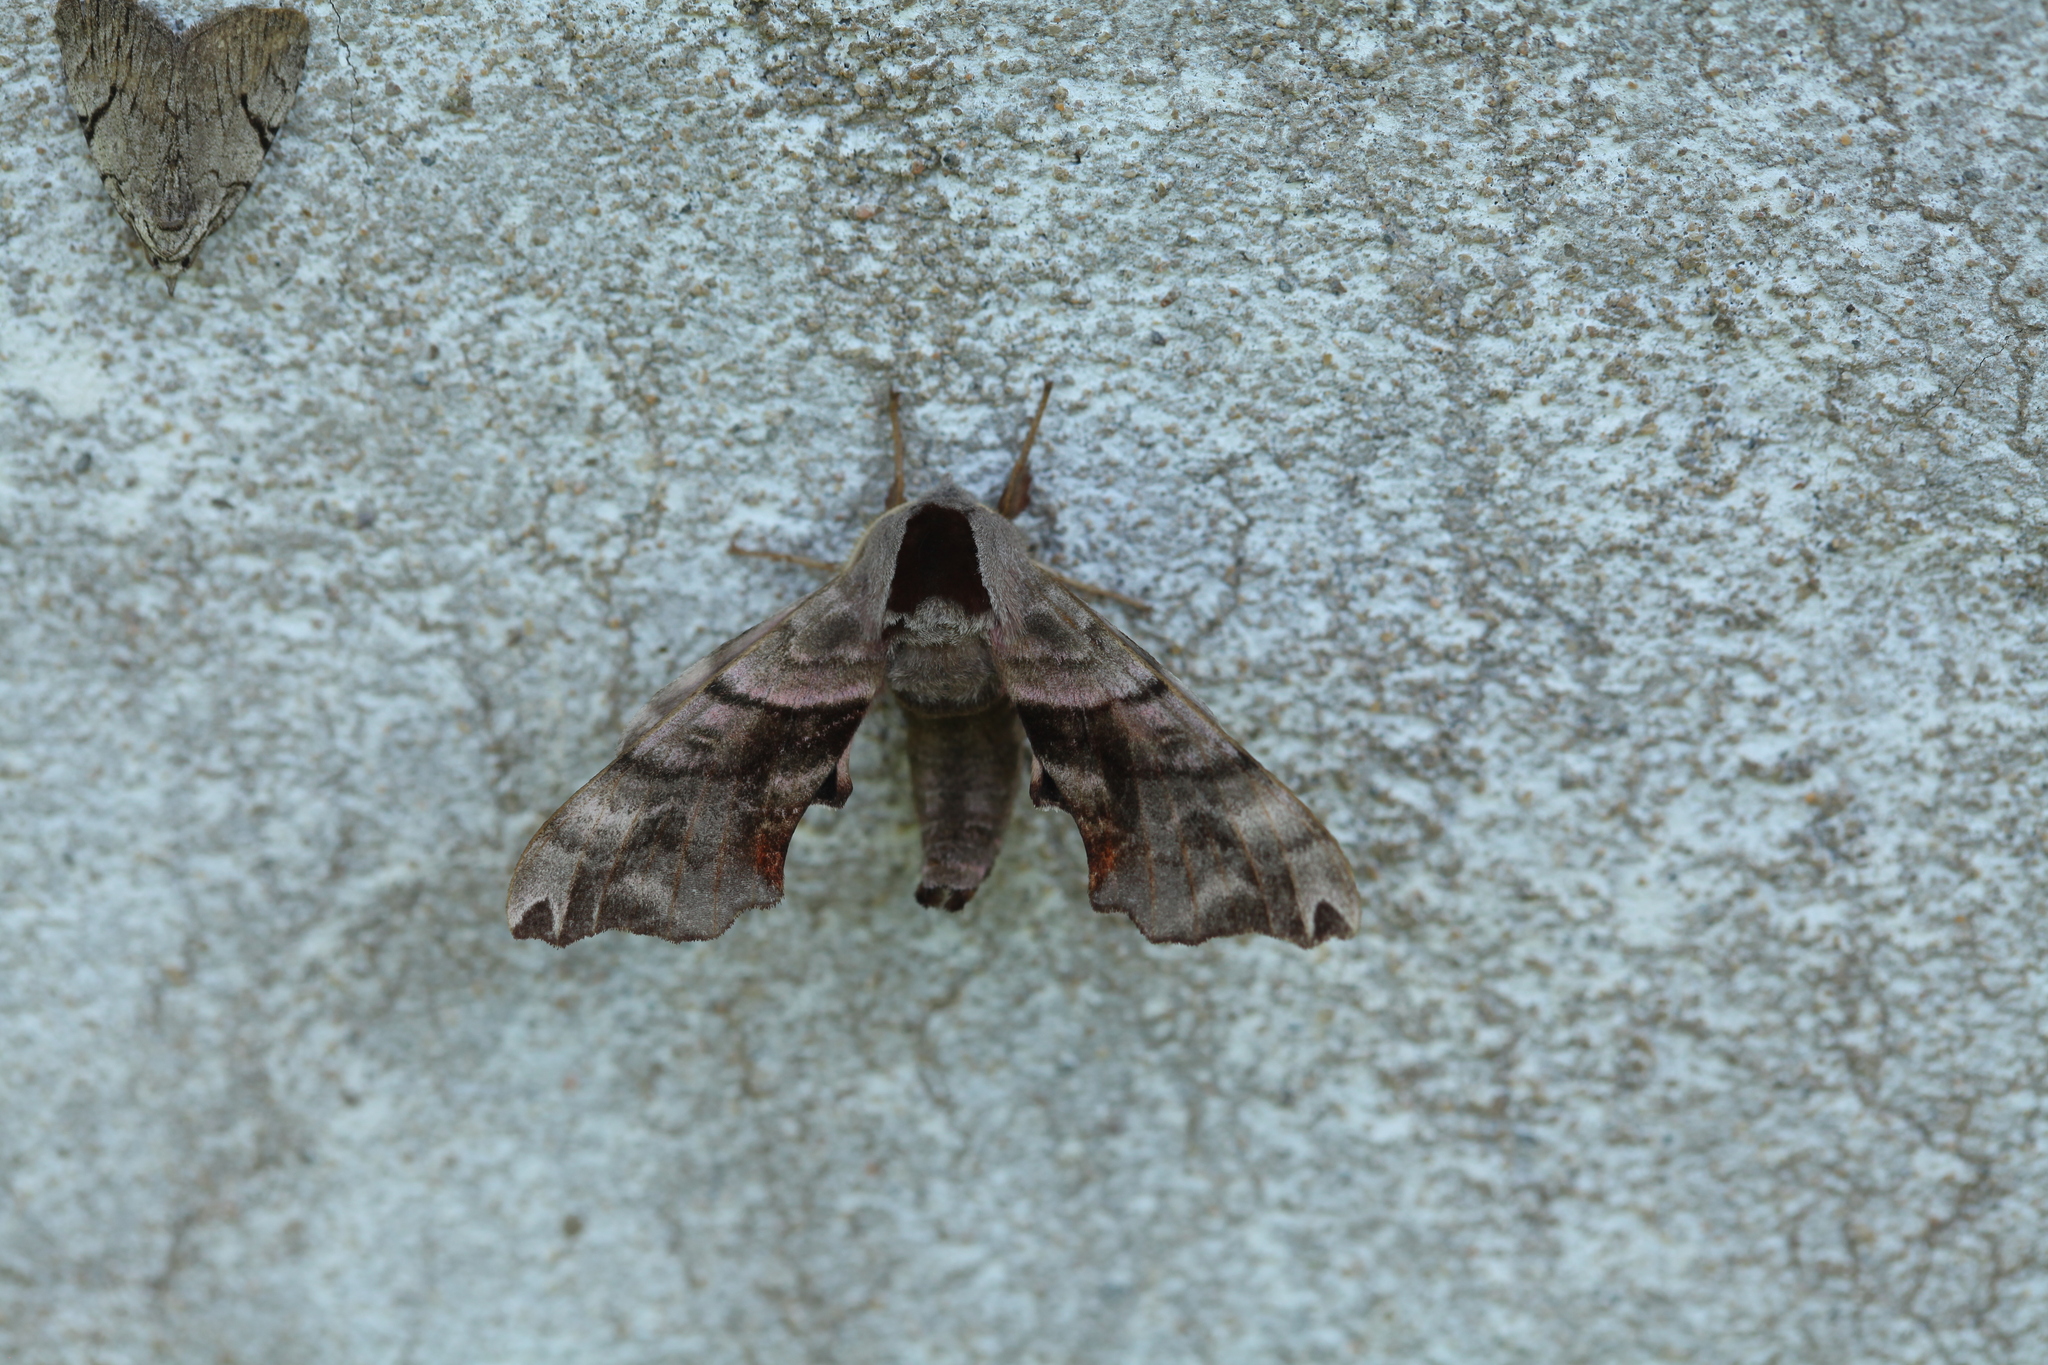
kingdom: Animalia
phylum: Arthropoda
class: Insecta
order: Lepidoptera
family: Sphingidae
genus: Smerinthus
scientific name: Smerinthus caecus
